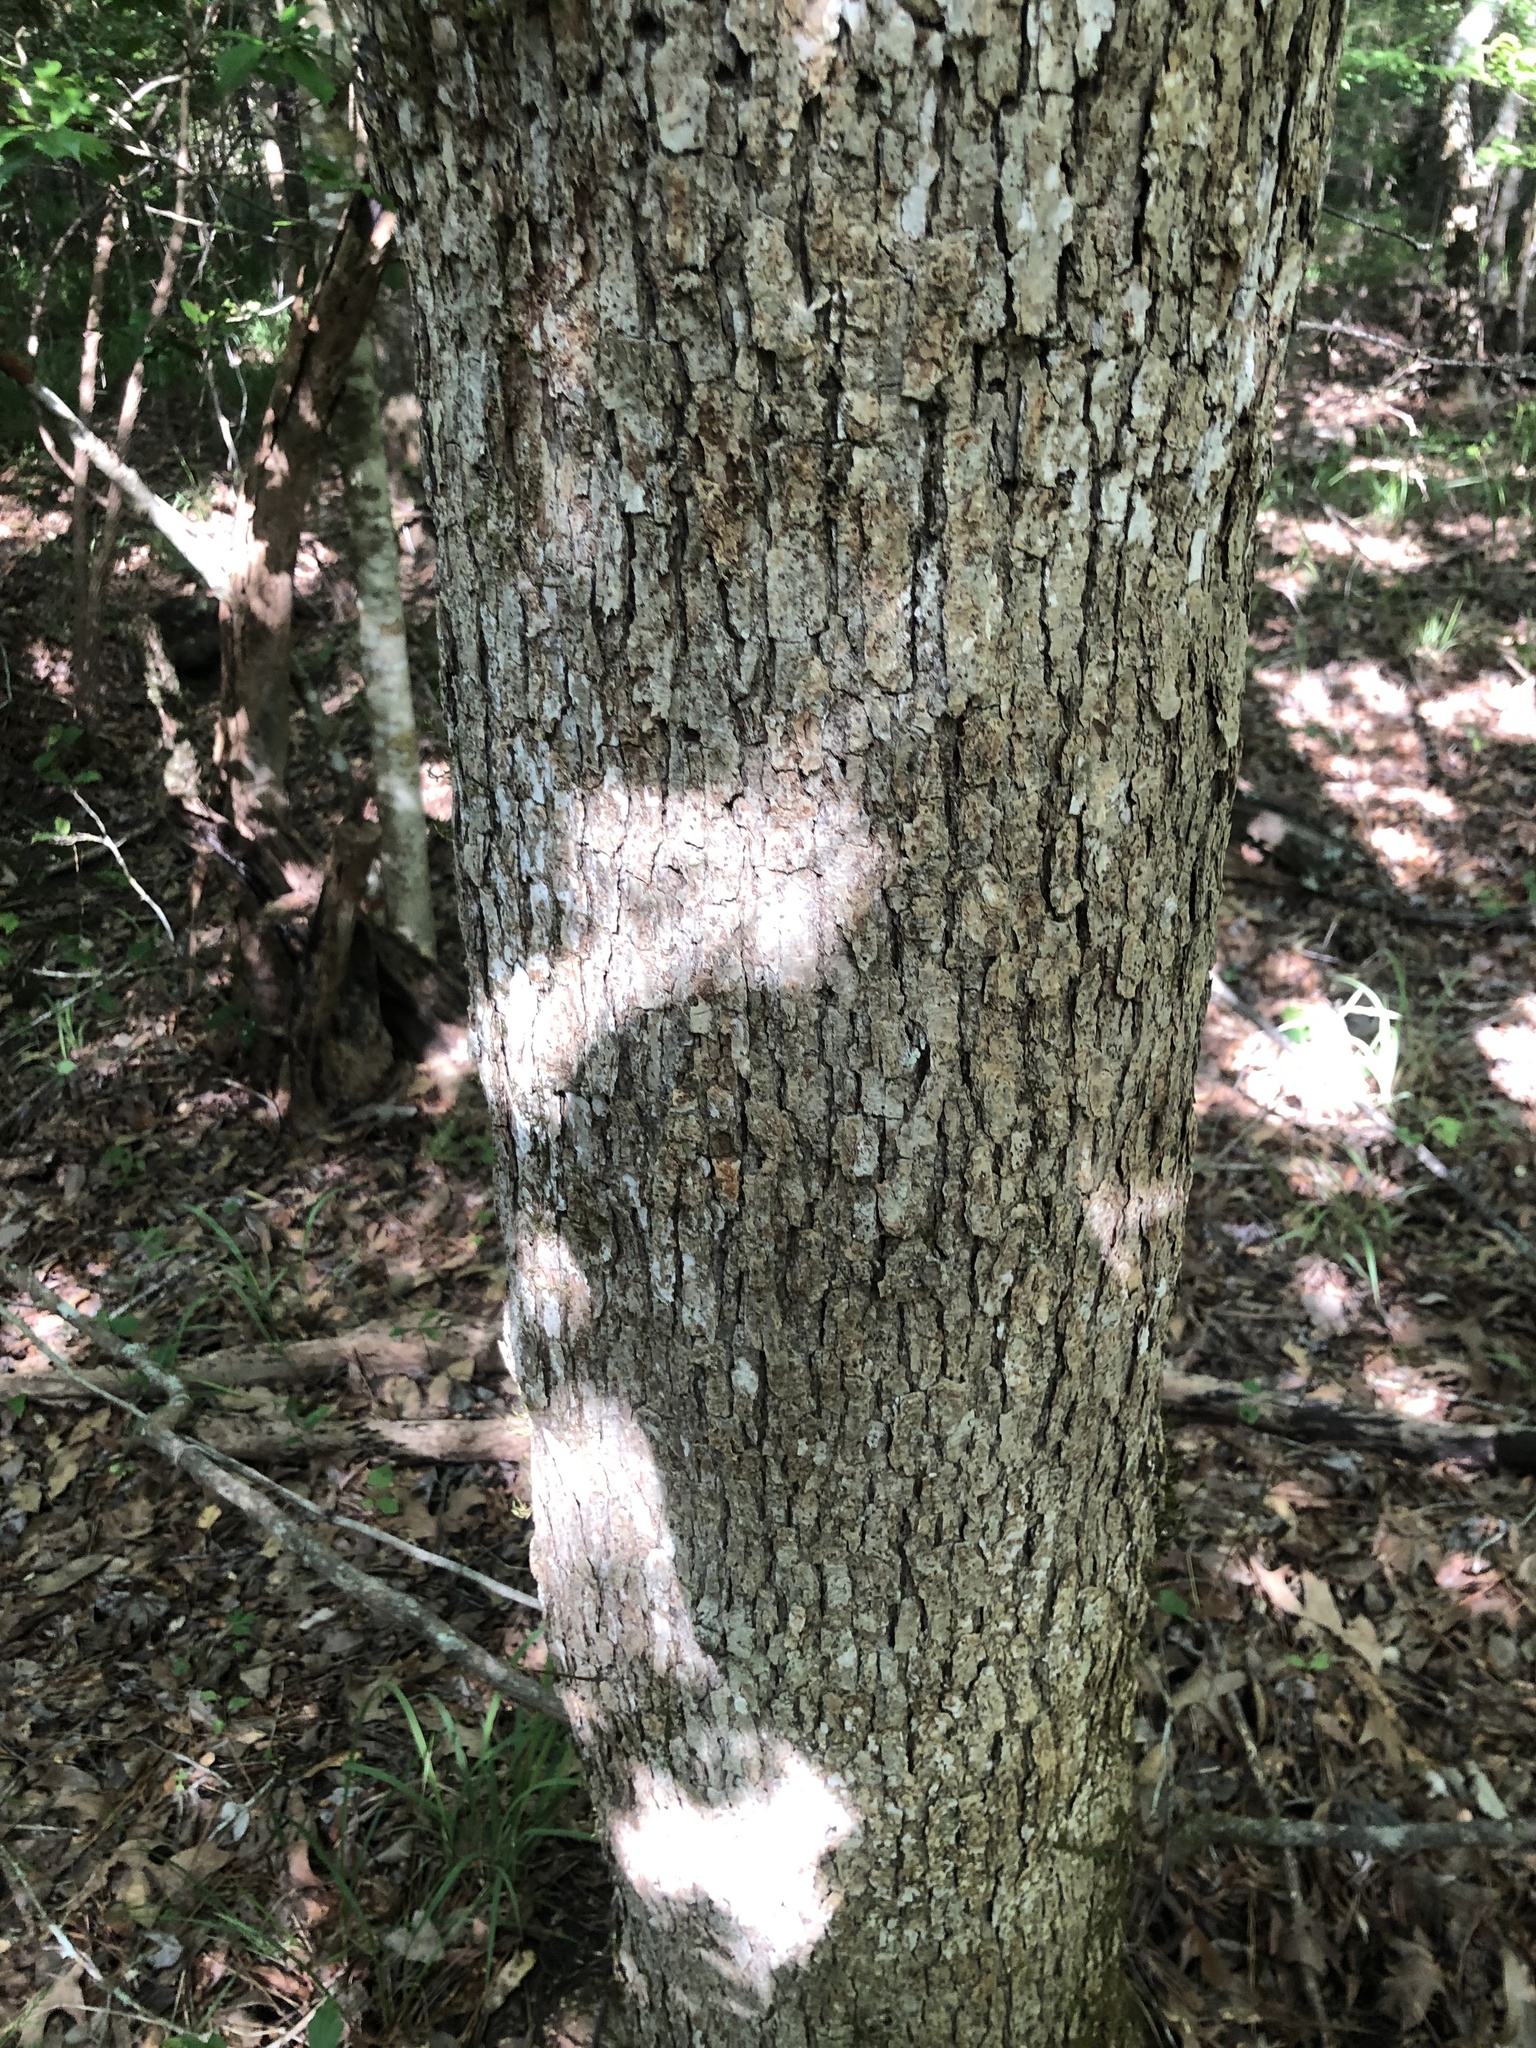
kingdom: Plantae
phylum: Tracheophyta
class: Magnoliopsida
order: Fagales
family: Fagaceae
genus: Quercus
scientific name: Quercus muehlenbergii
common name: Chinkapin oak
